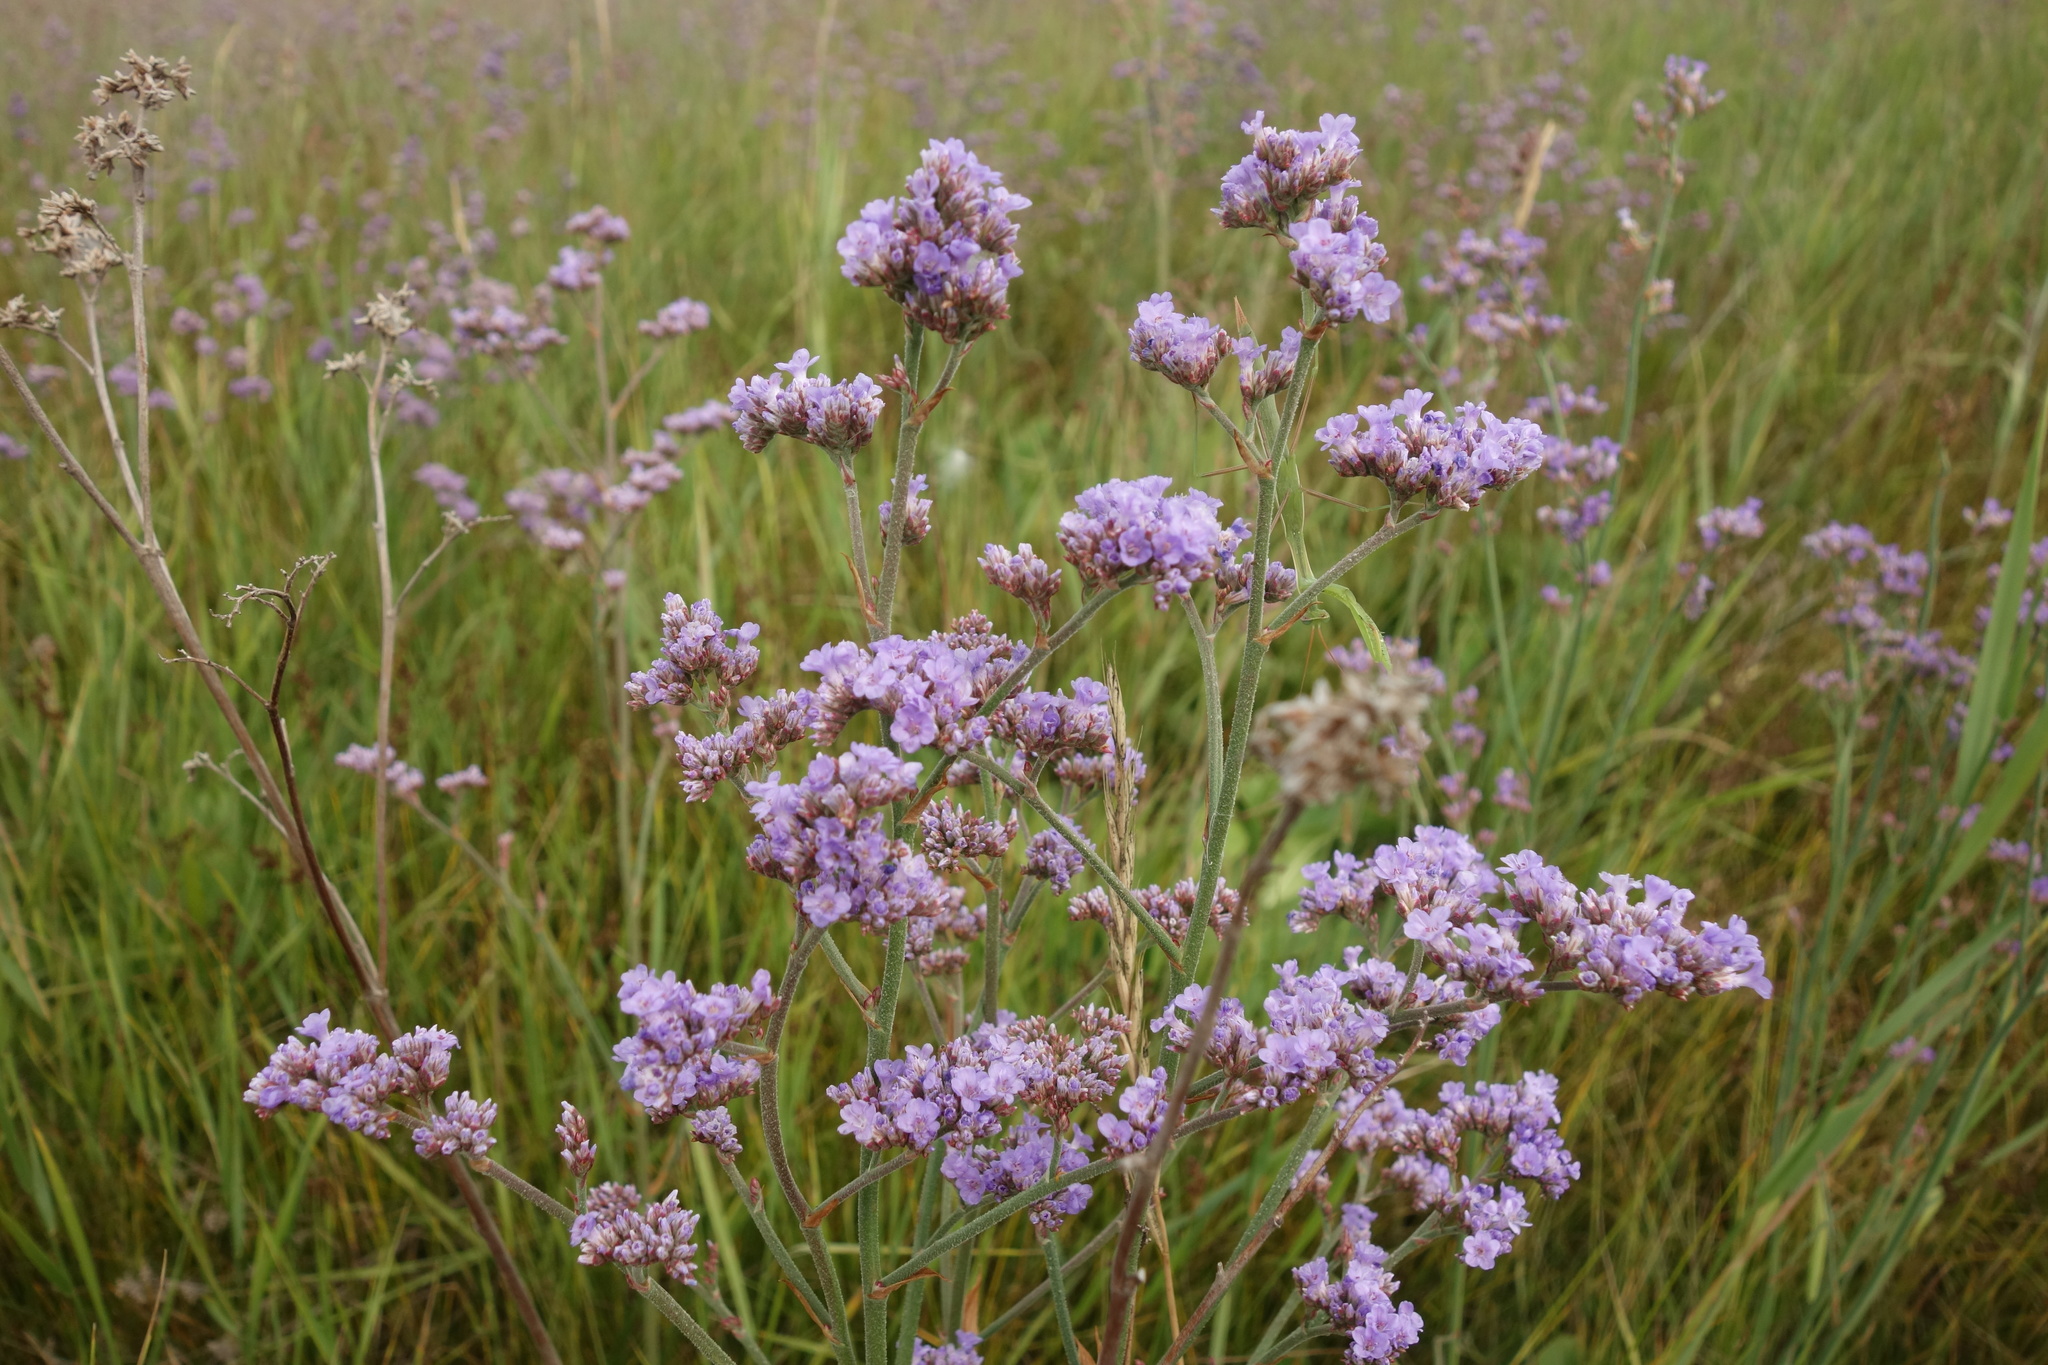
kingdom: Plantae
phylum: Tracheophyta
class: Magnoliopsida
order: Caryophyllales
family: Plumbaginaceae
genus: Limonium
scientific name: Limonium tomentellum
